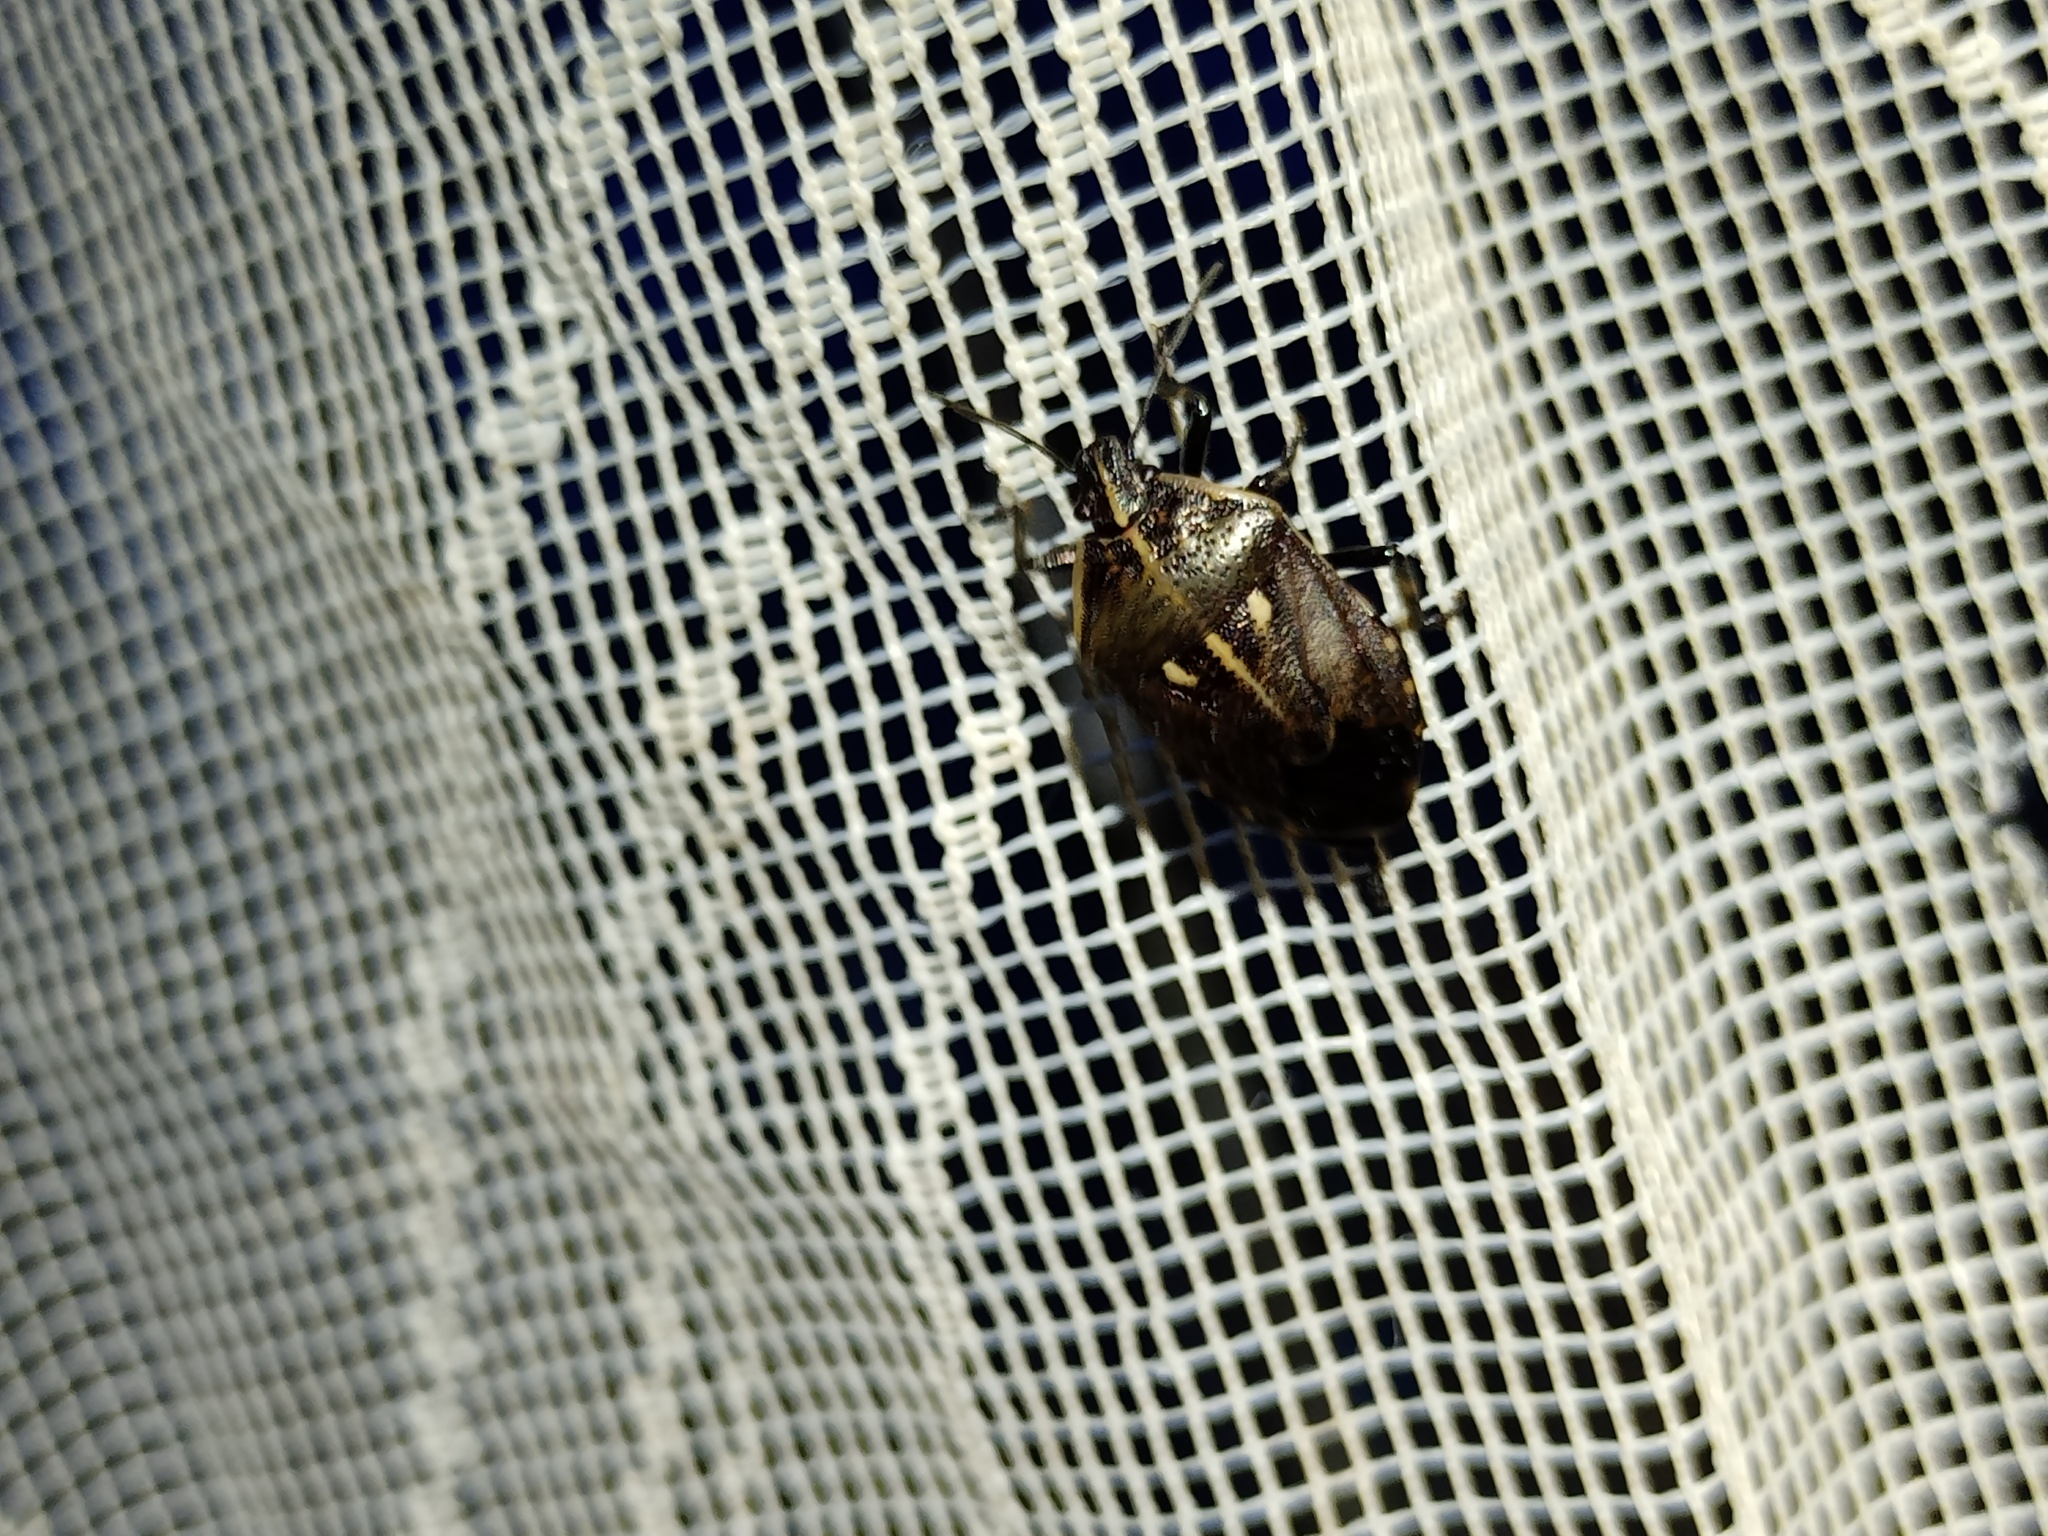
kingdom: Animalia
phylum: Arthropoda
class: Insecta
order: Hemiptera
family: Pentatomidae
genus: Jalla
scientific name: Jalla dumosa
